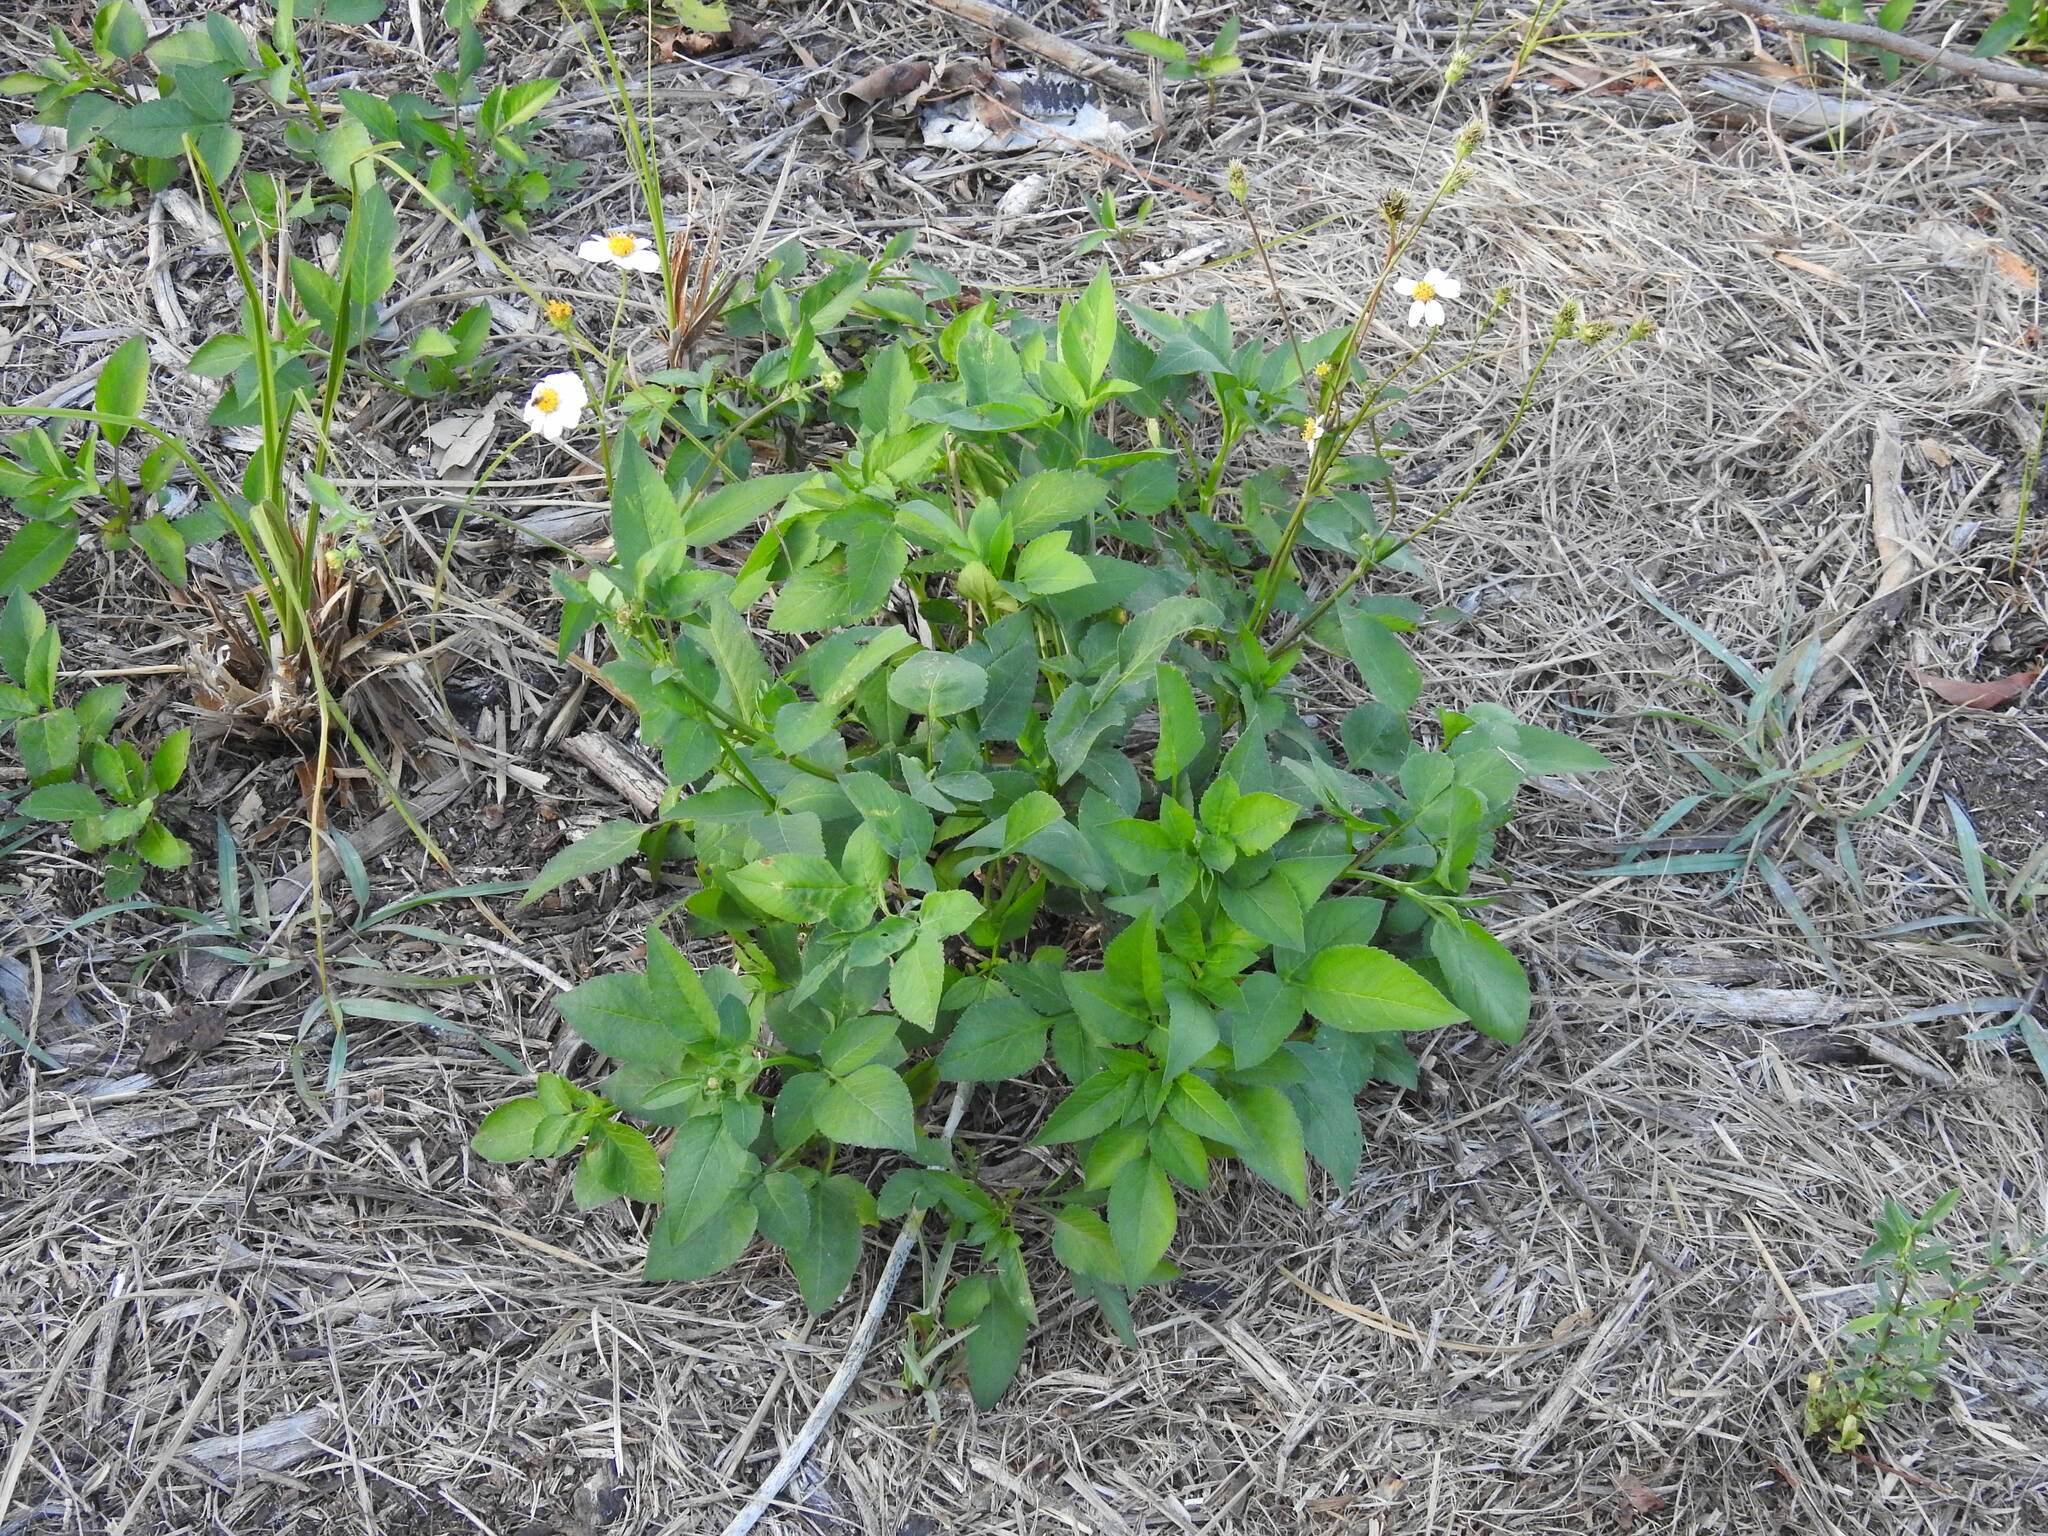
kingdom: Plantae
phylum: Tracheophyta
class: Magnoliopsida
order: Asterales
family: Asteraceae
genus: Bidens
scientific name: Bidens alba
